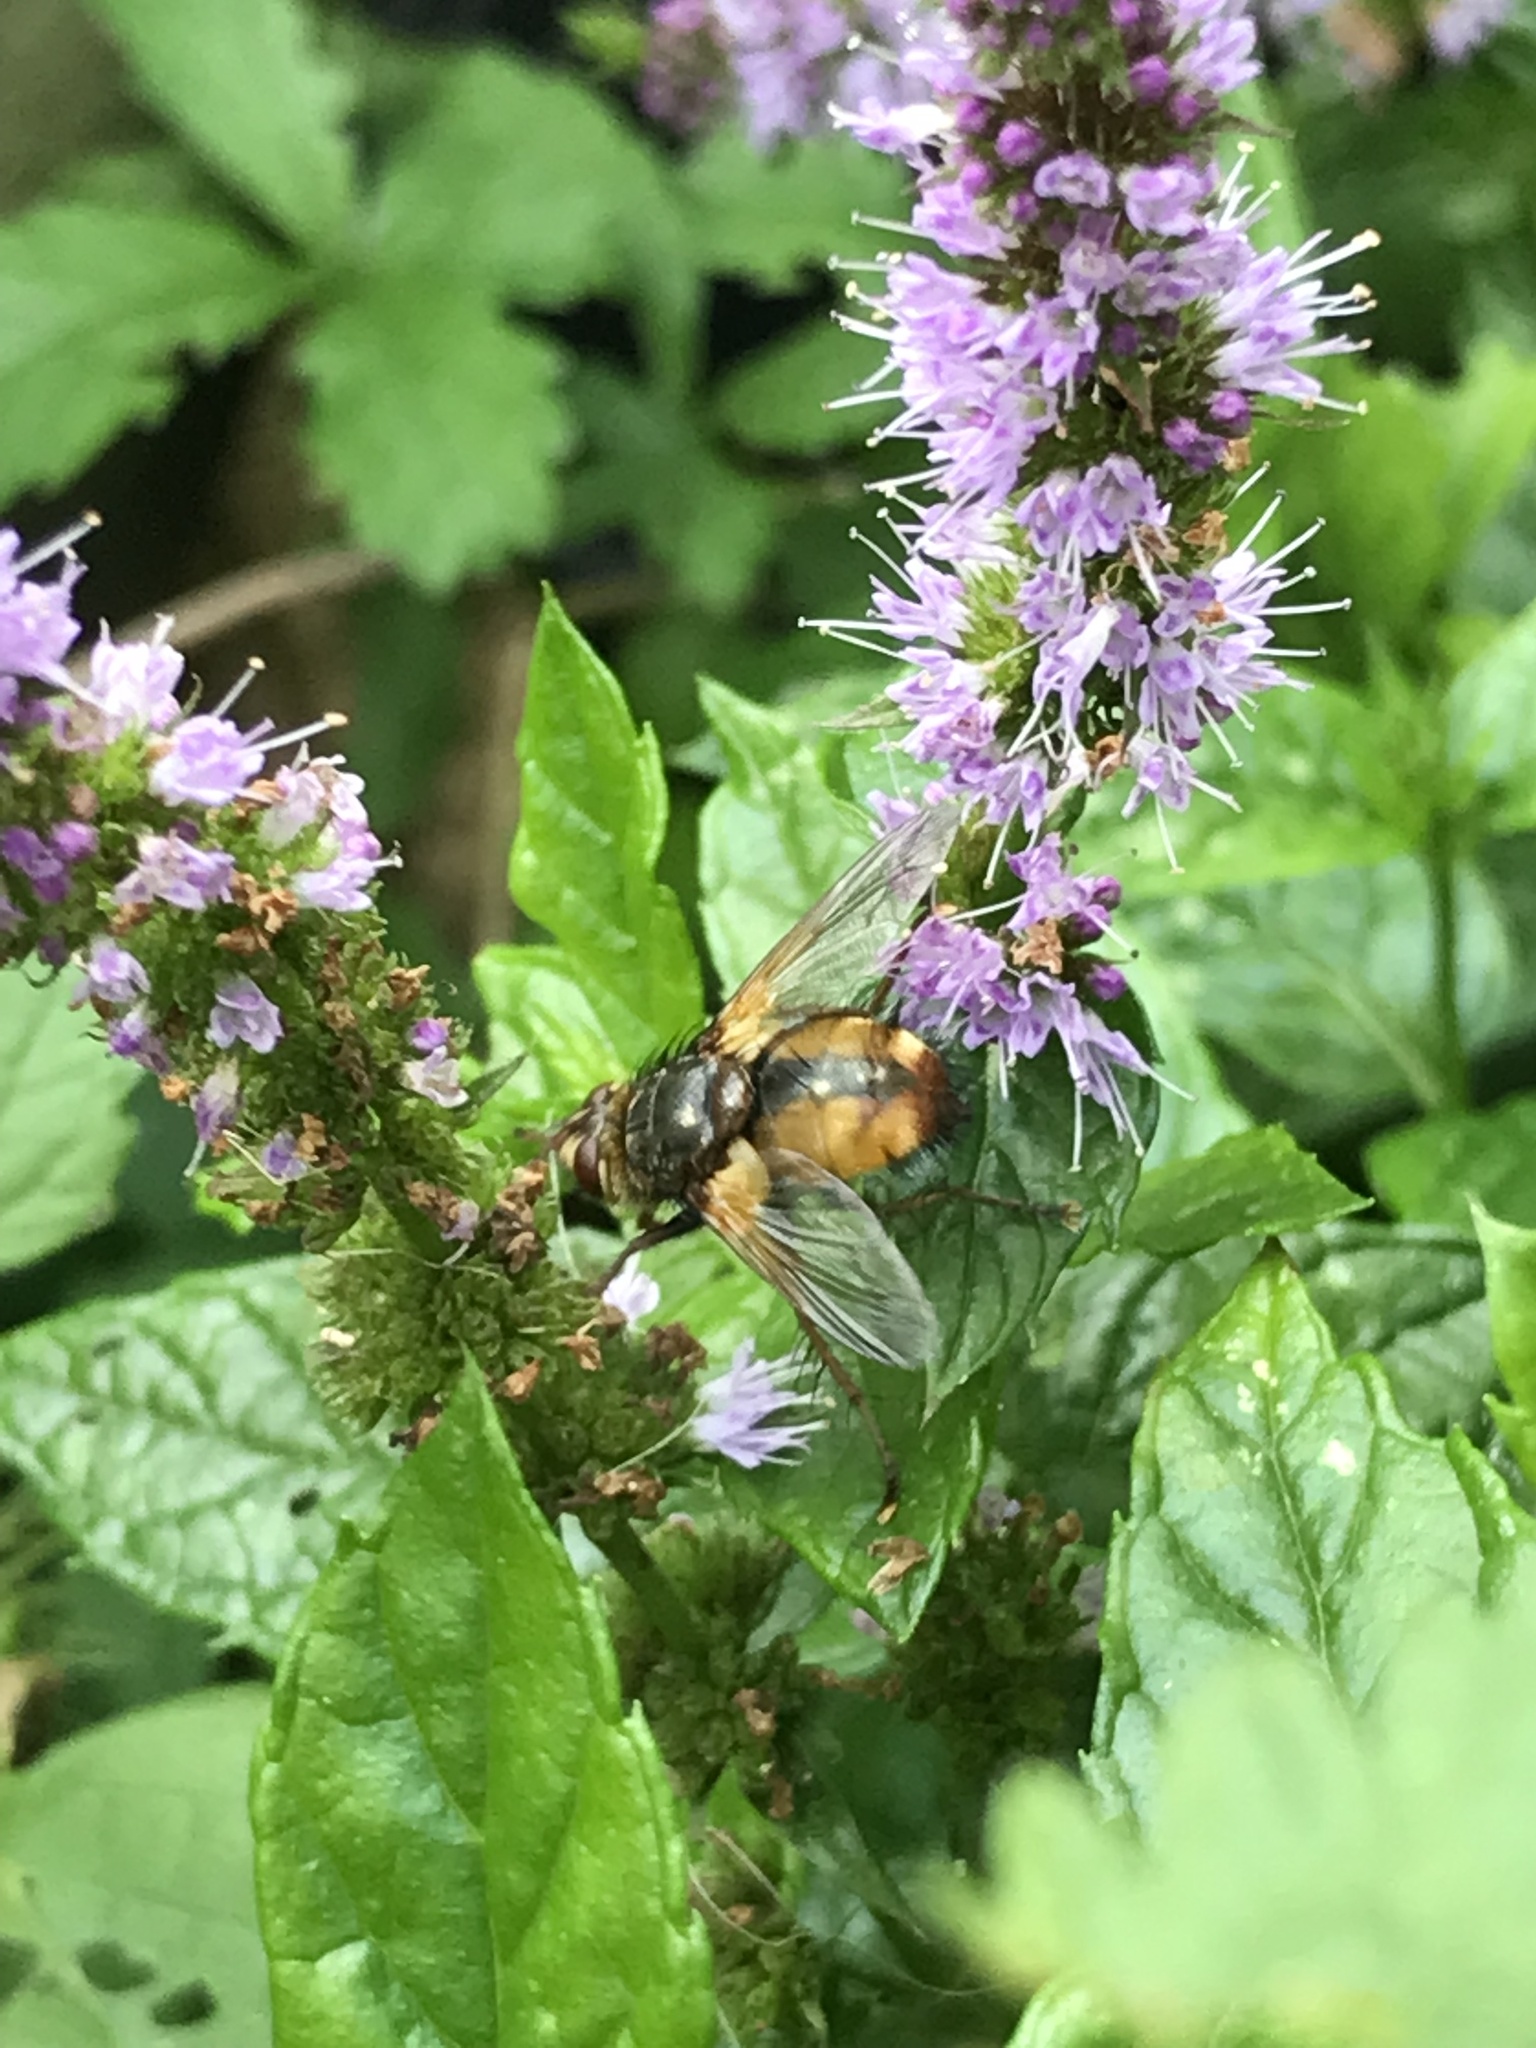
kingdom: Animalia
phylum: Arthropoda
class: Insecta
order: Diptera
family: Tachinidae
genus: Tachina
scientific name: Tachina fera
